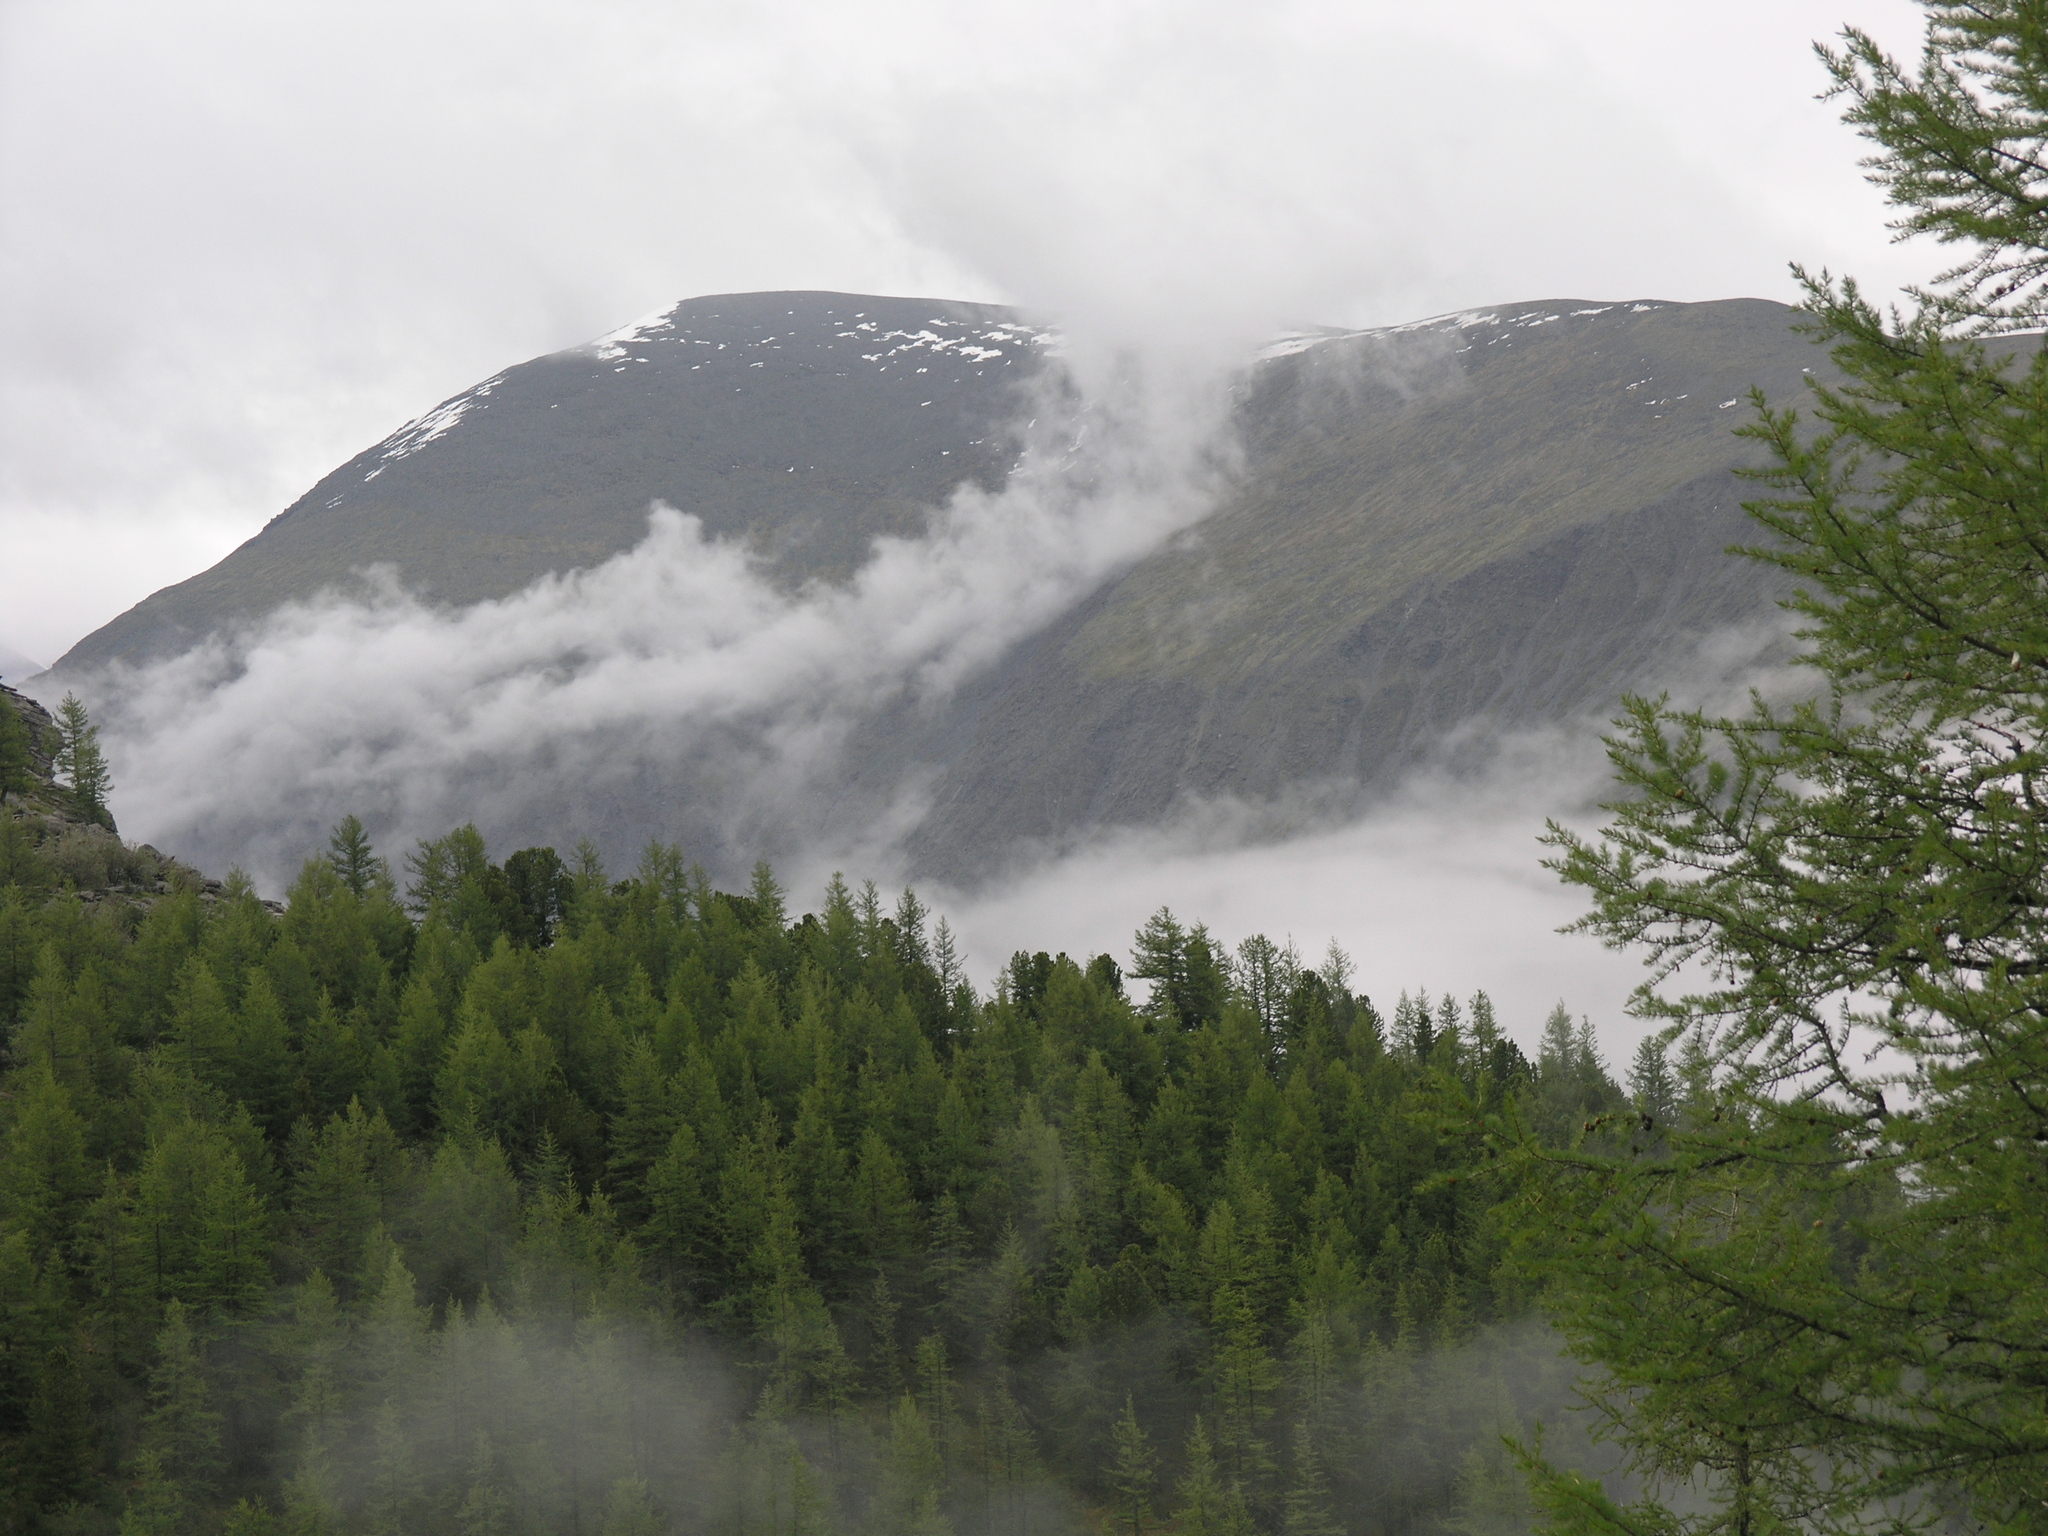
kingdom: Plantae
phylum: Tracheophyta
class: Pinopsida
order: Pinales
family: Pinaceae
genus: Larix
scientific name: Larix sibirica
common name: Siberian larch
